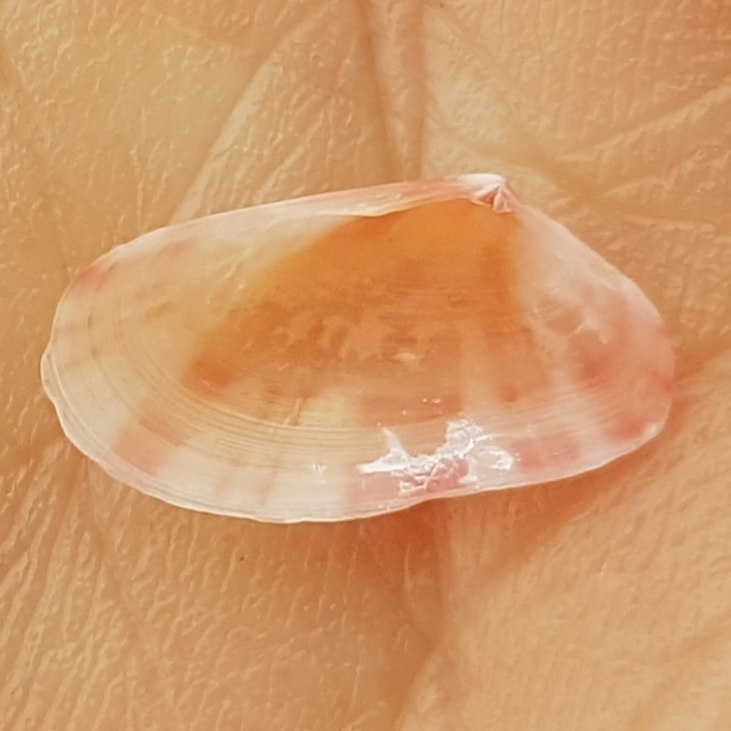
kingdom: Animalia
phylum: Mollusca
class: Bivalvia
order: Cardiida
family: Tellinidae
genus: Moerella
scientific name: Moerella donacina
